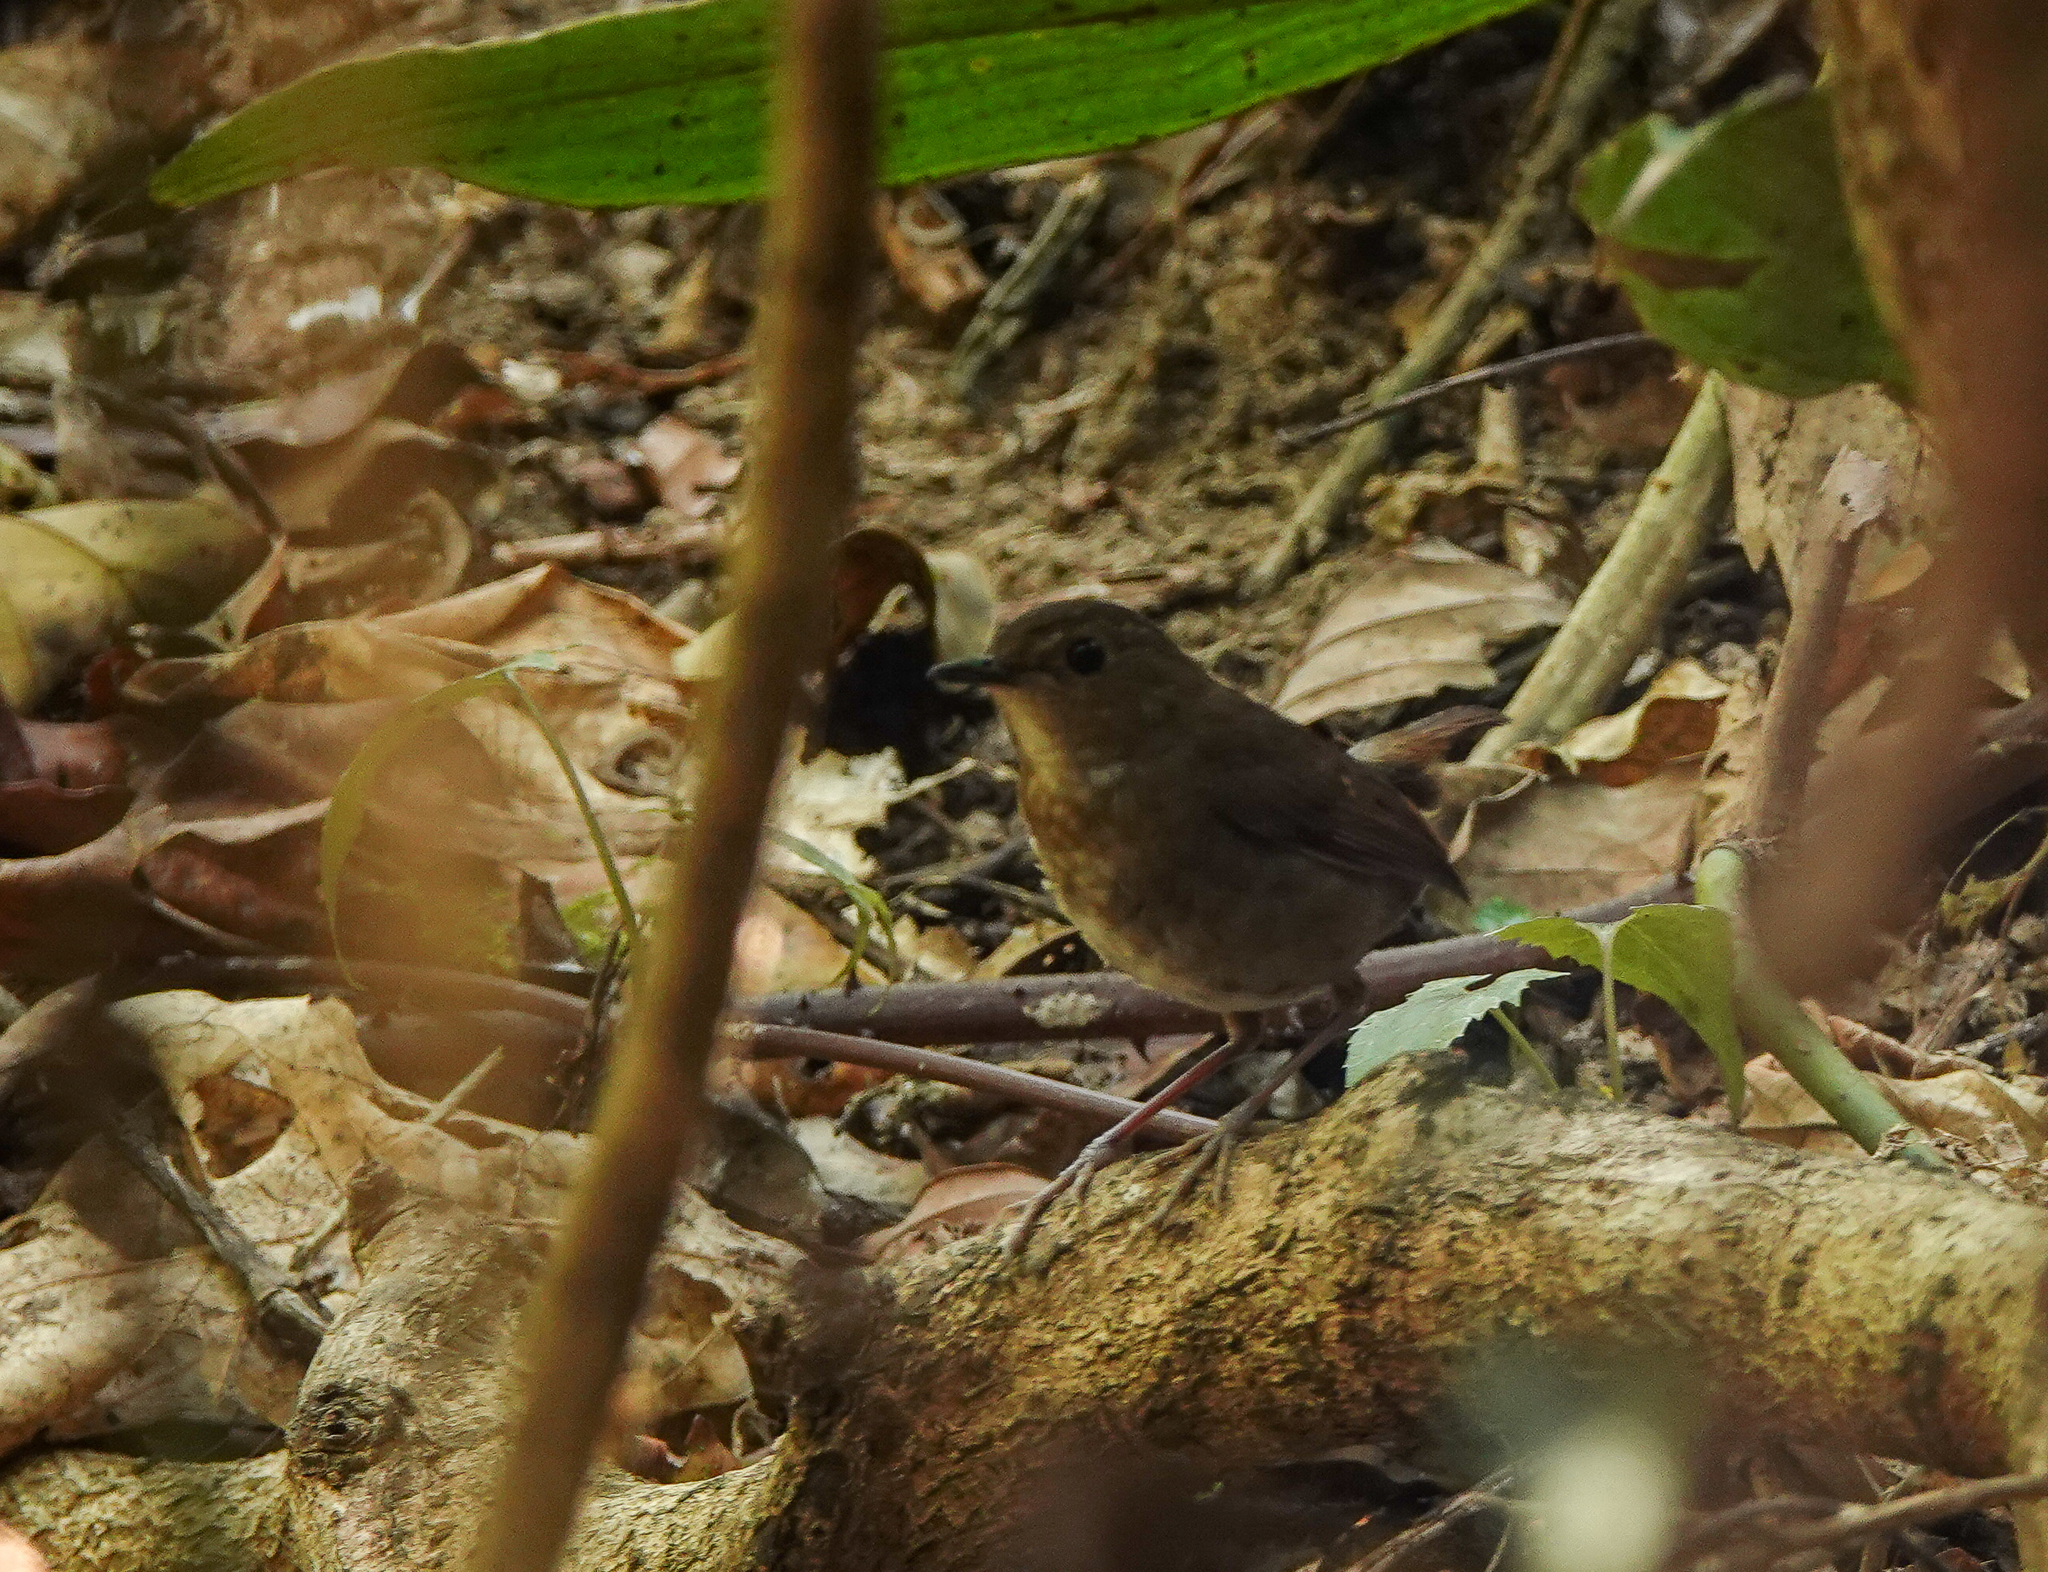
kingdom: Animalia
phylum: Chordata
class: Aves
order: Passeriformes
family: Muscicapidae
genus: Brachypteryx
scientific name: Brachypteryx leucophris
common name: Lesser shortwing
